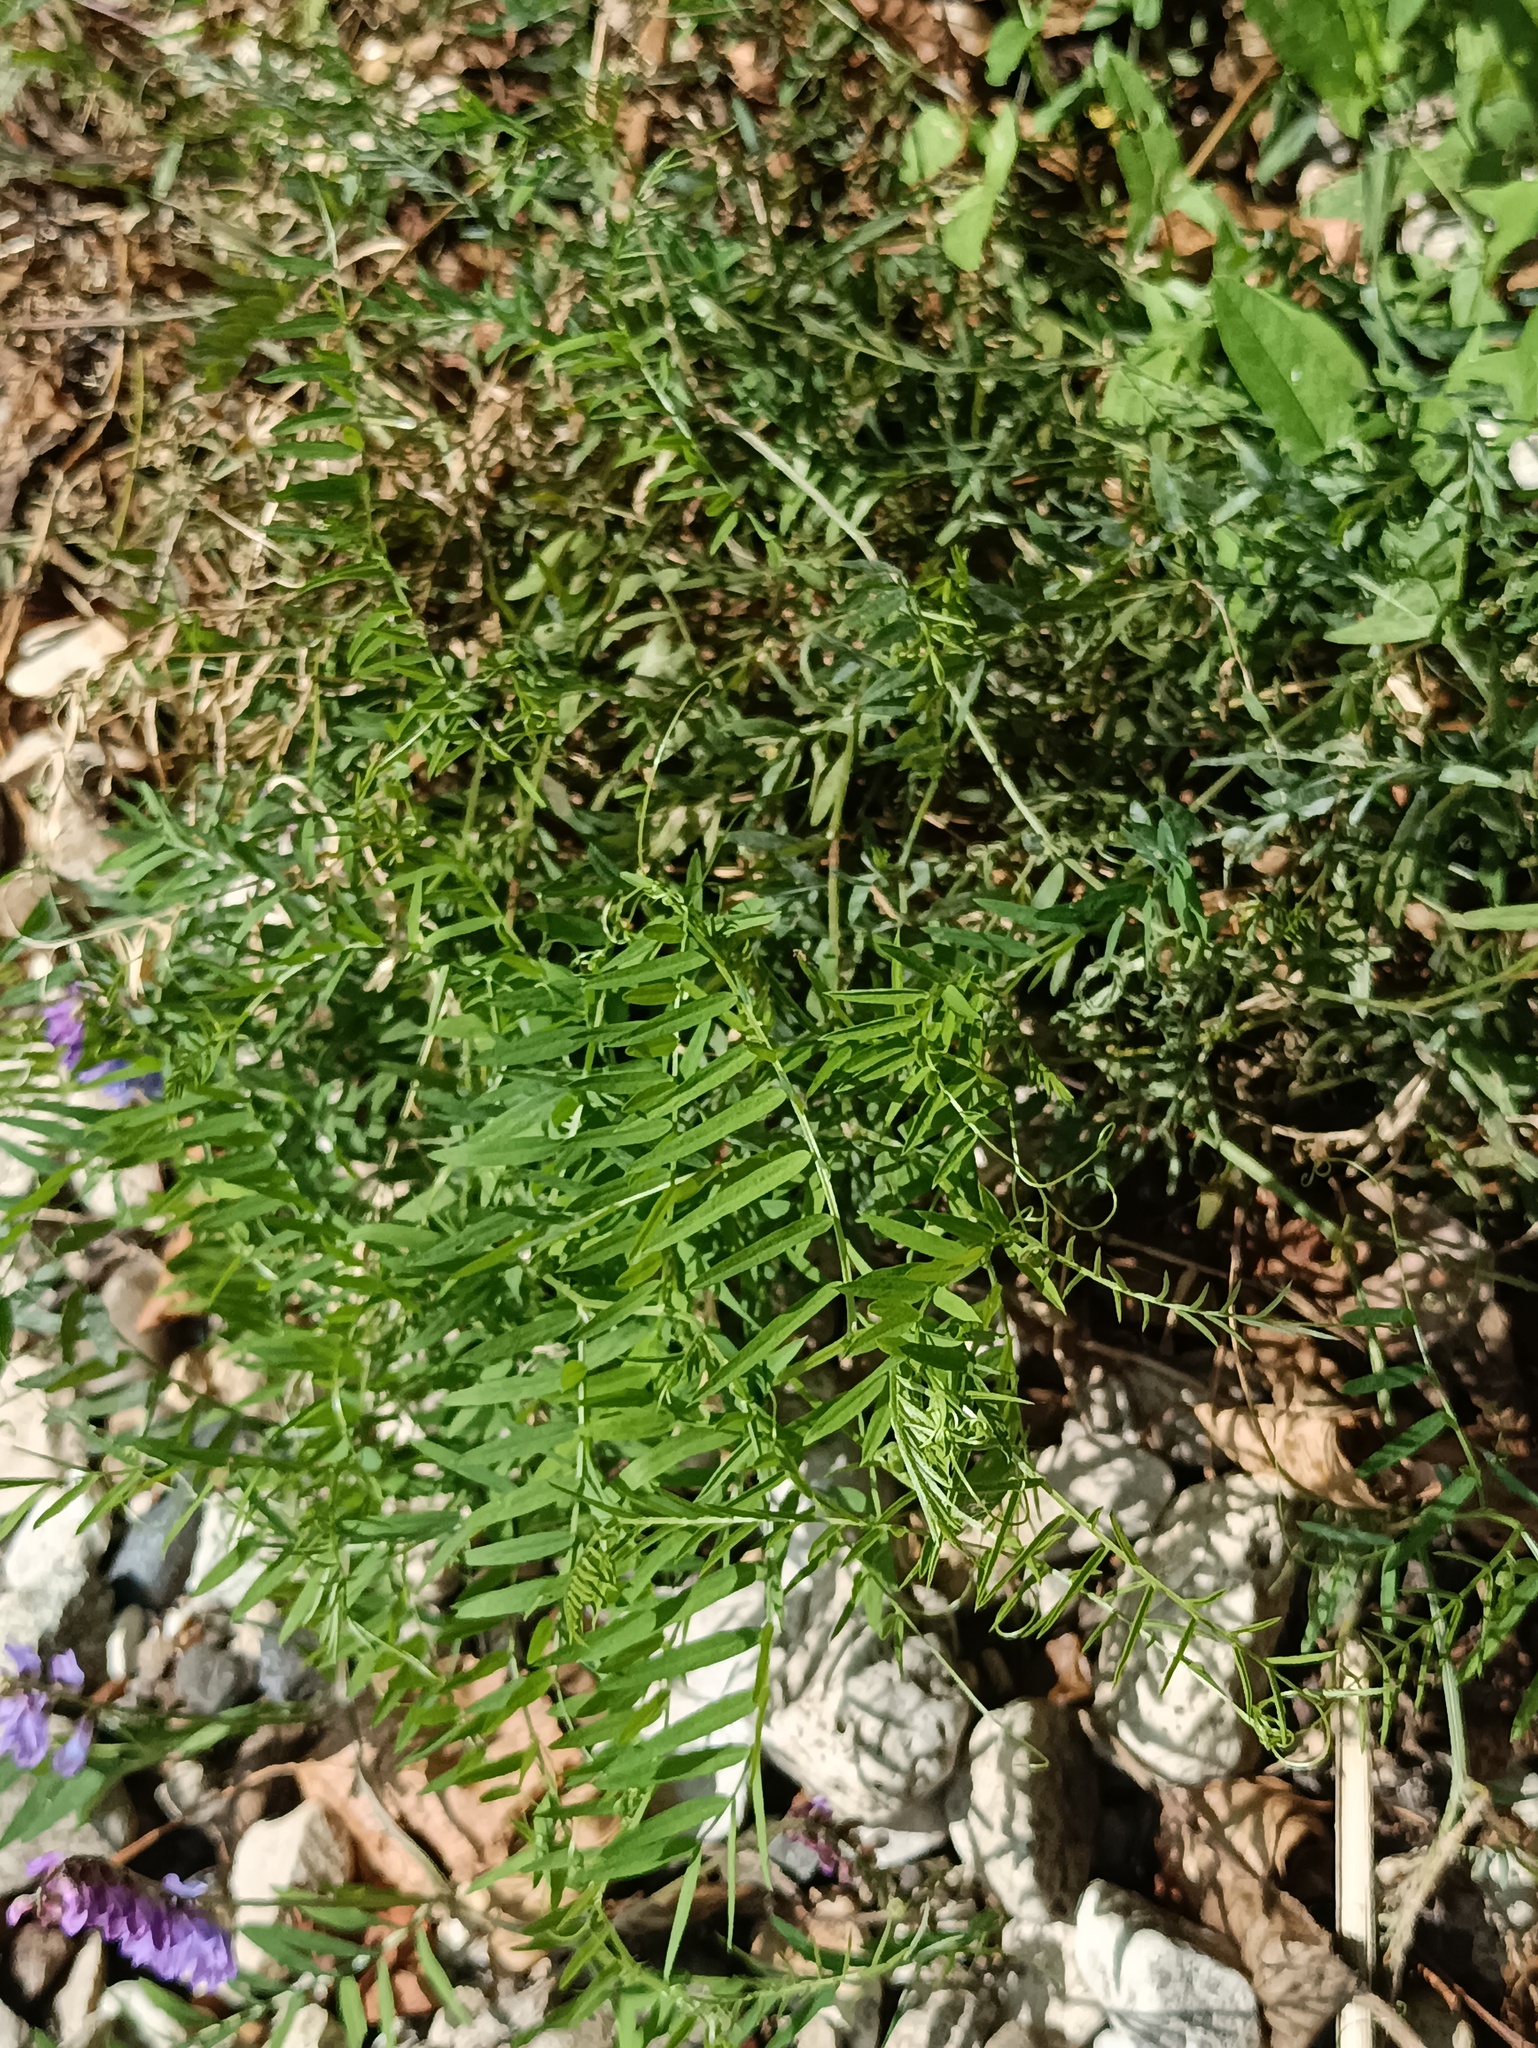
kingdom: Plantae
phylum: Tracheophyta
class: Magnoliopsida
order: Fabales
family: Fabaceae
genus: Vicia
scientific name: Vicia cracca
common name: Bird vetch
